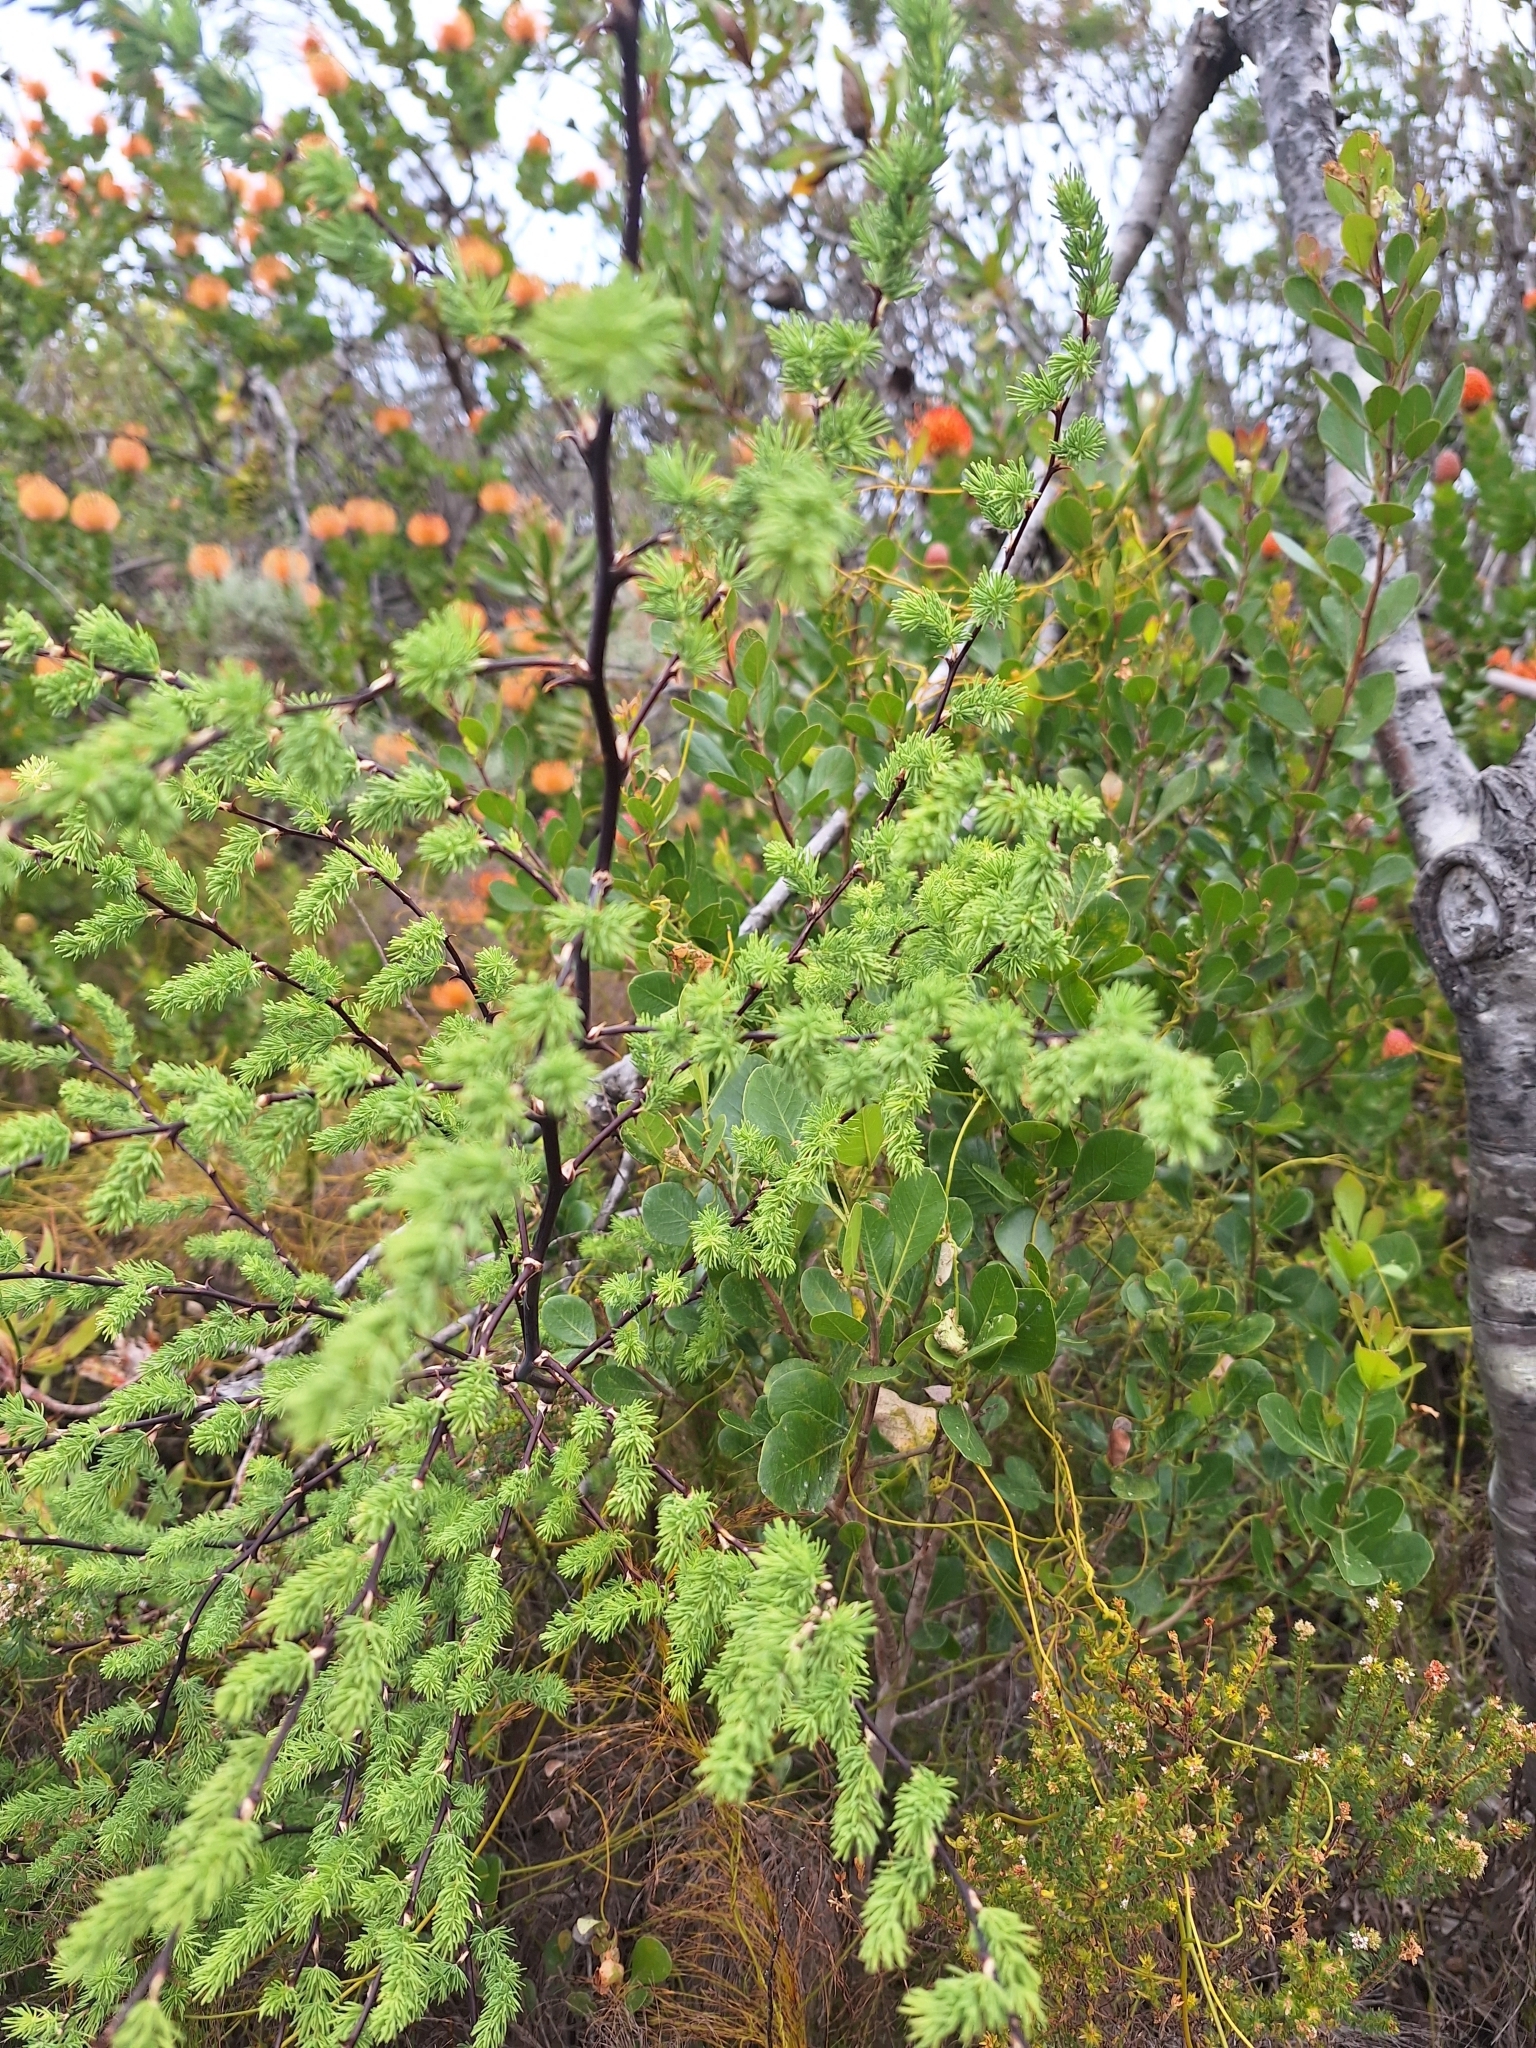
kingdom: Plantae
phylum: Tracheophyta
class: Liliopsida
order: Asparagales
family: Asparagaceae
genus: Asparagus
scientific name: Asparagus rubicundus
